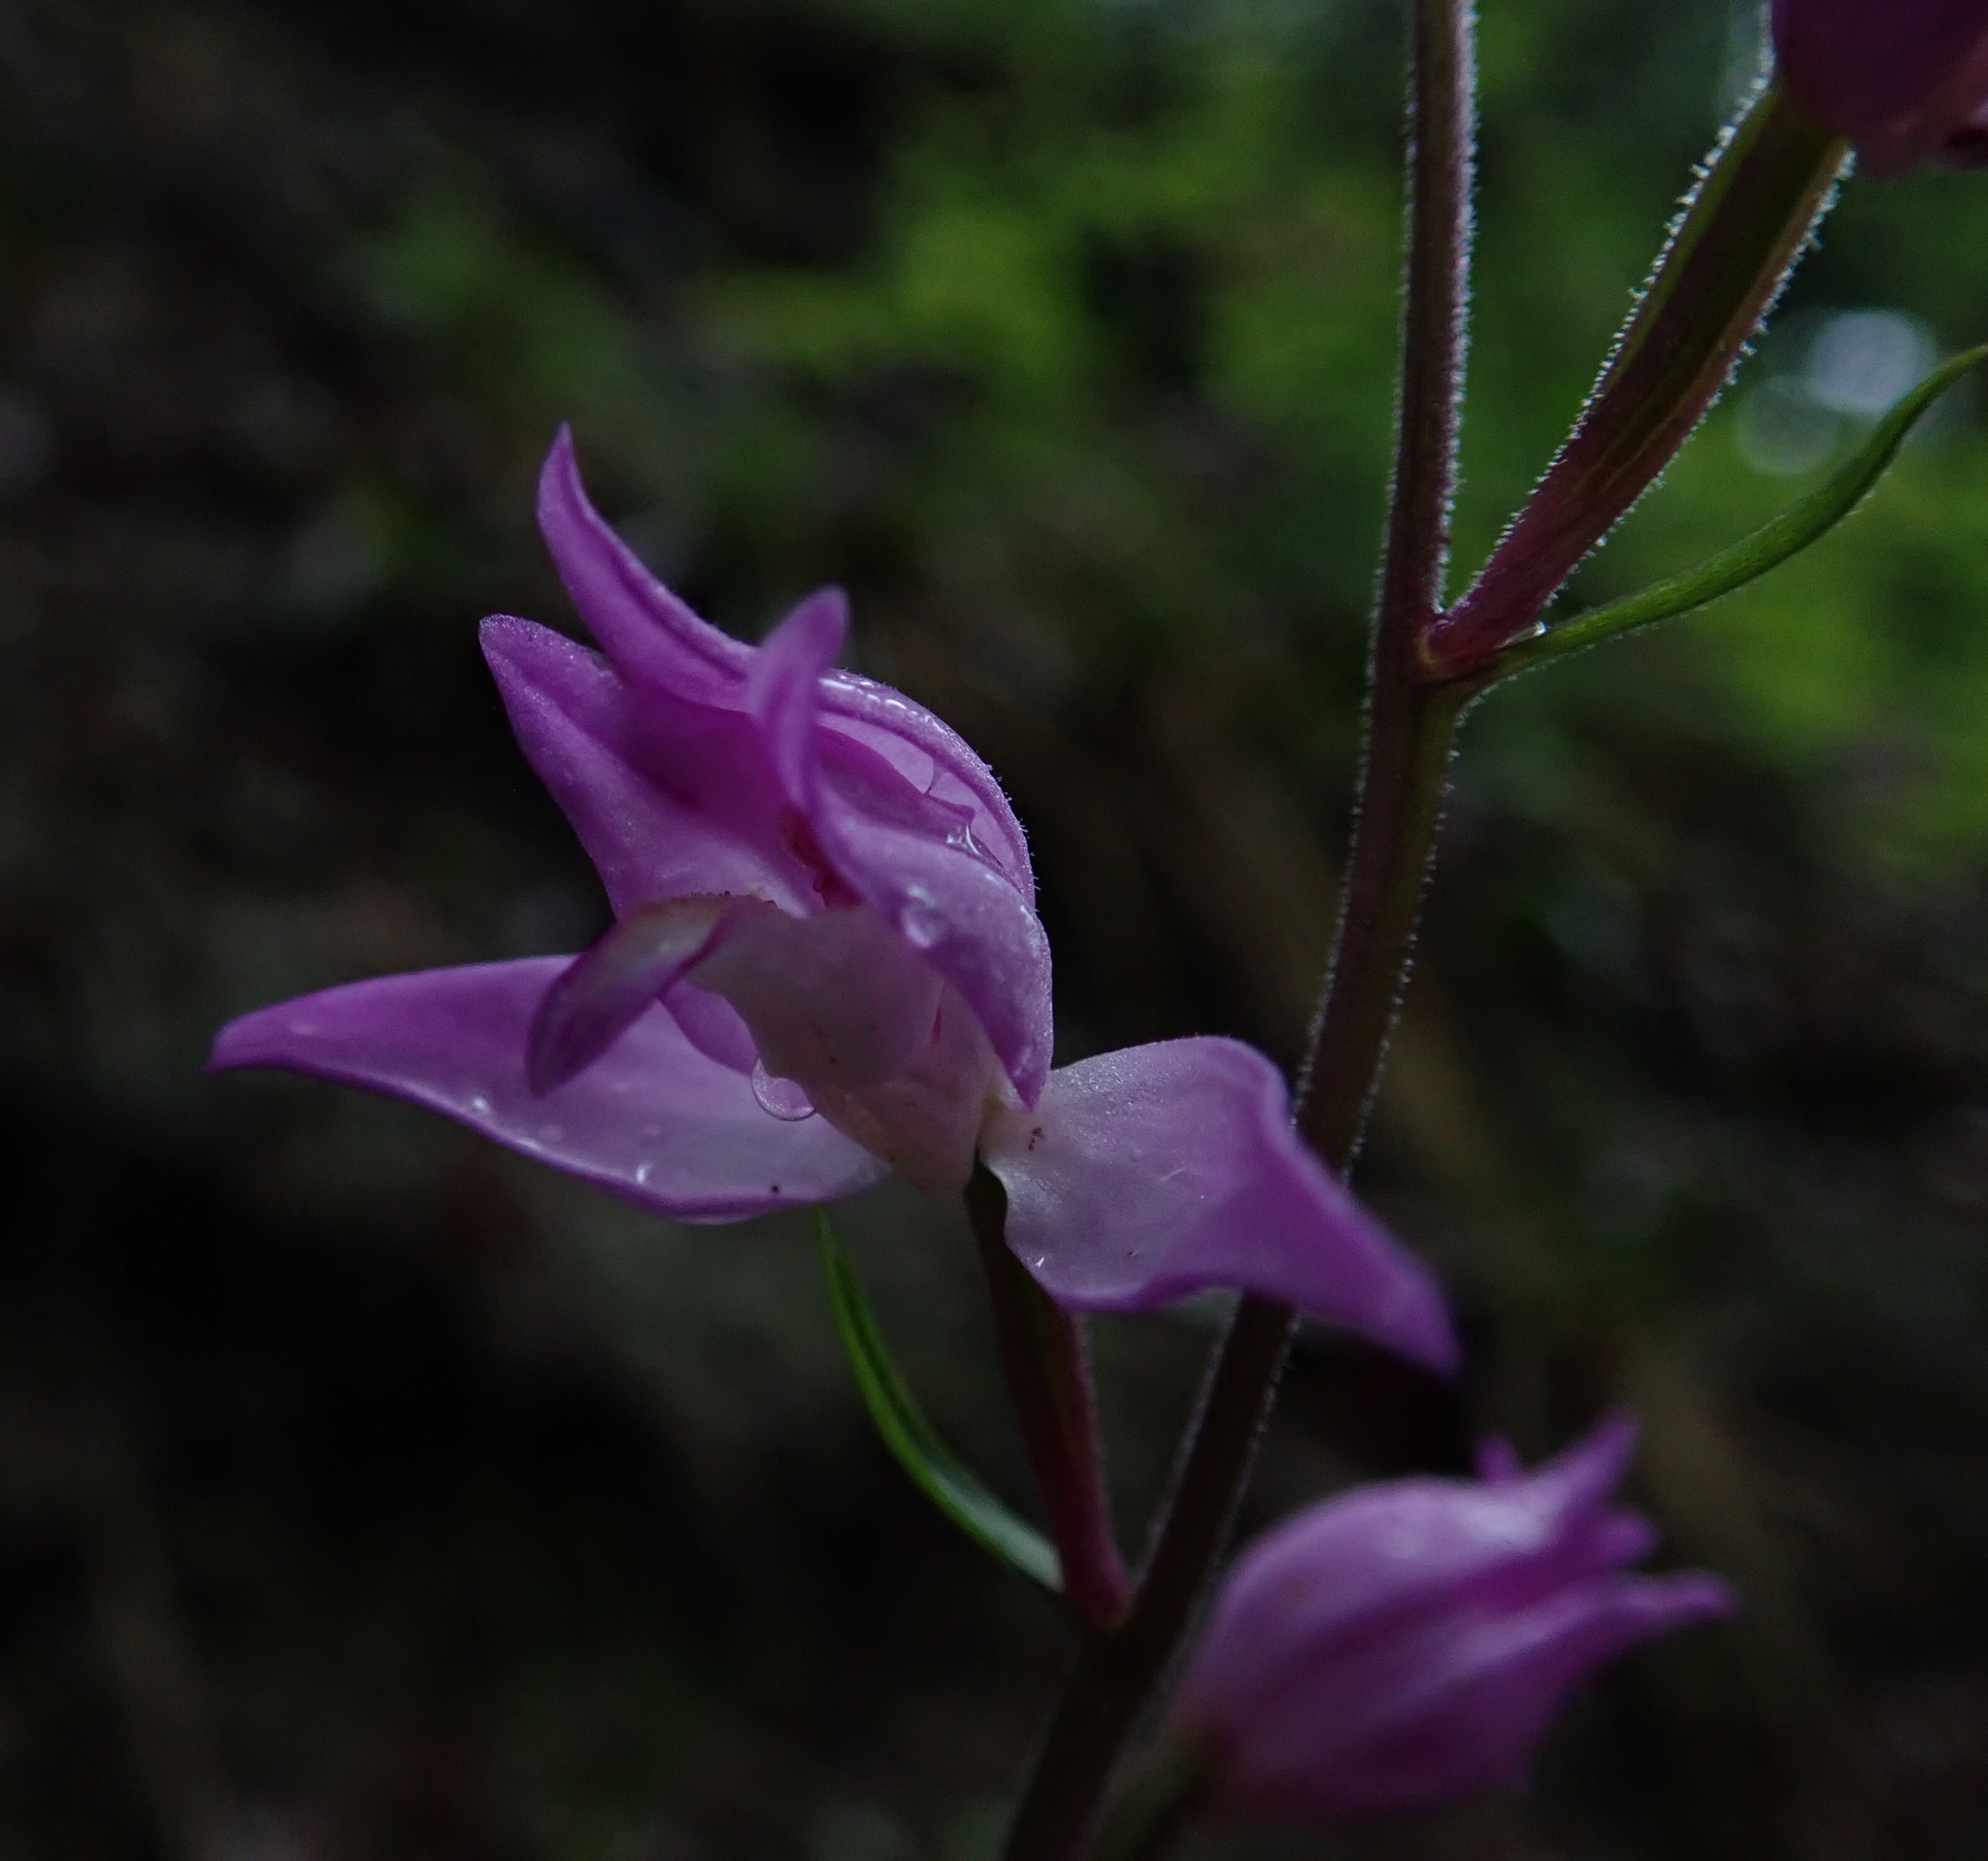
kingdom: Plantae
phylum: Tracheophyta
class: Liliopsida
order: Asparagales
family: Orchidaceae
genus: Cephalanthera
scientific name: Cephalanthera rubra
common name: Red helleborine
